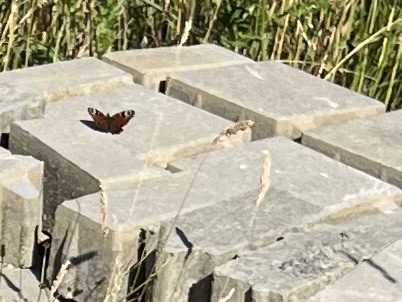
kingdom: Animalia
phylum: Arthropoda
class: Insecta
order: Lepidoptera
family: Nymphalidae
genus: Aglais
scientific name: Aglais io
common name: Peacock
